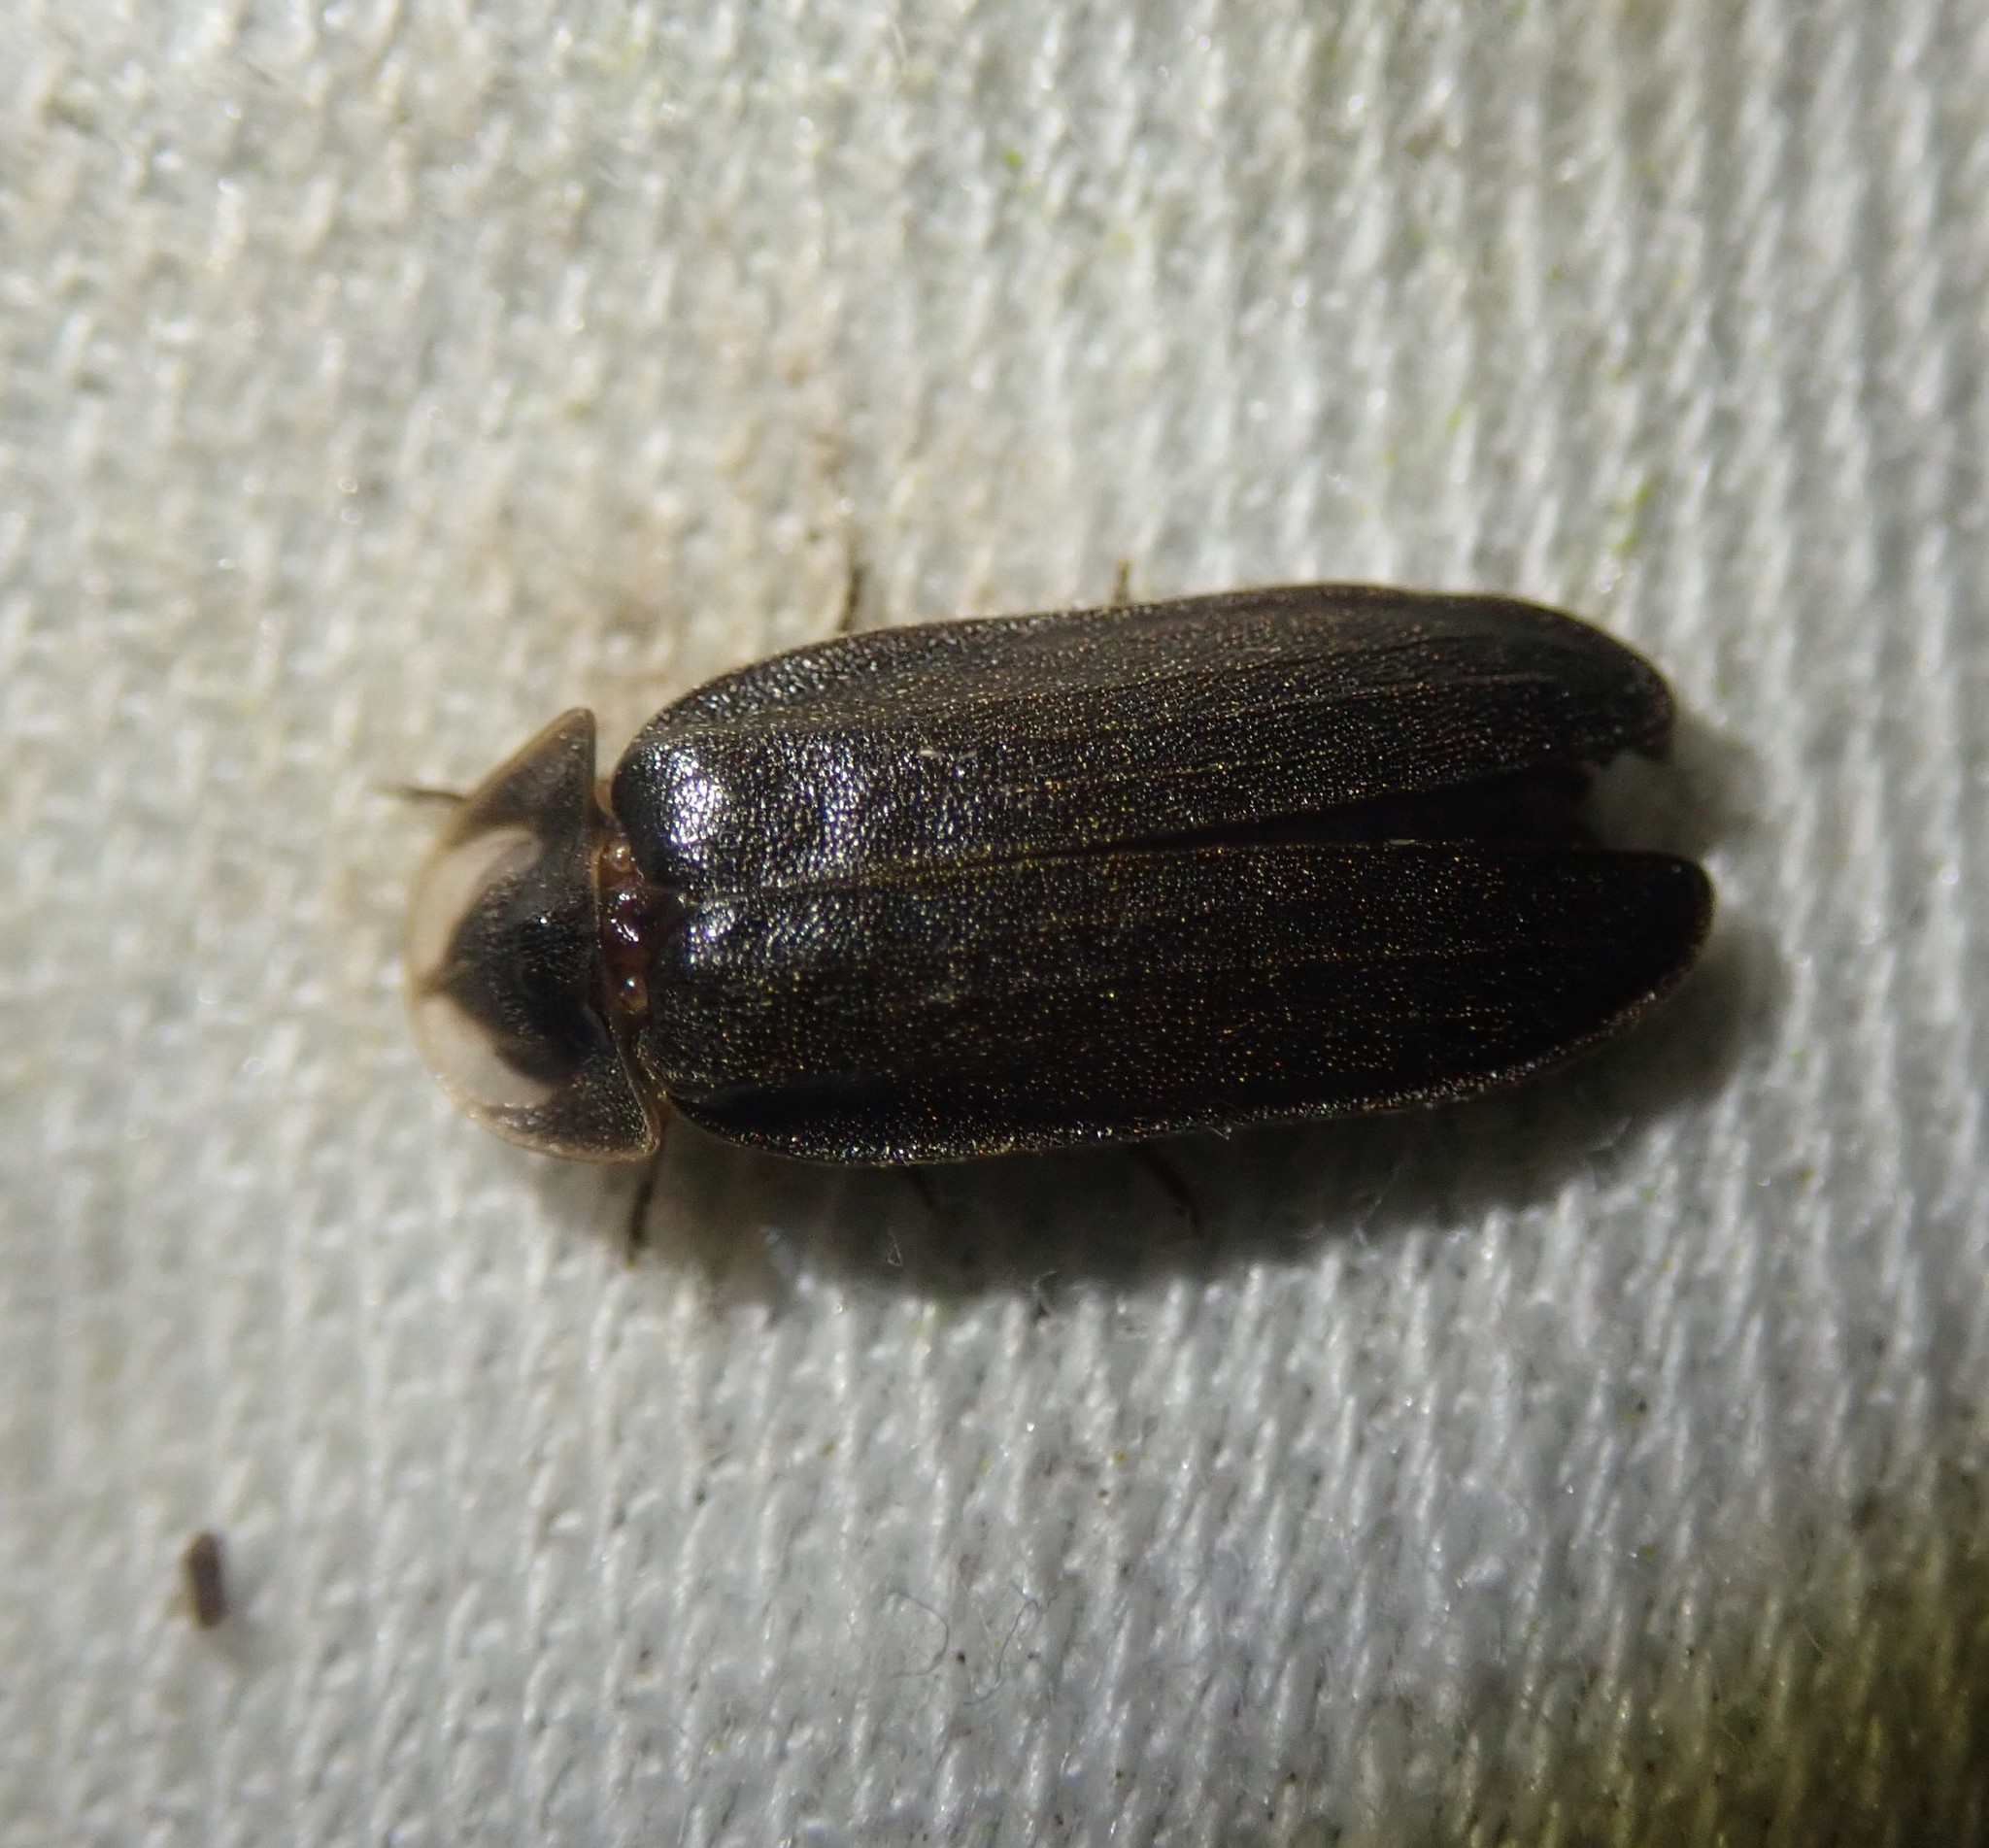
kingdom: Animalia
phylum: Arthropoda
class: Insecta
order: Coleoptera
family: Lampyridae
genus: Lamprohiza
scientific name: Lamprohiza splendidula
